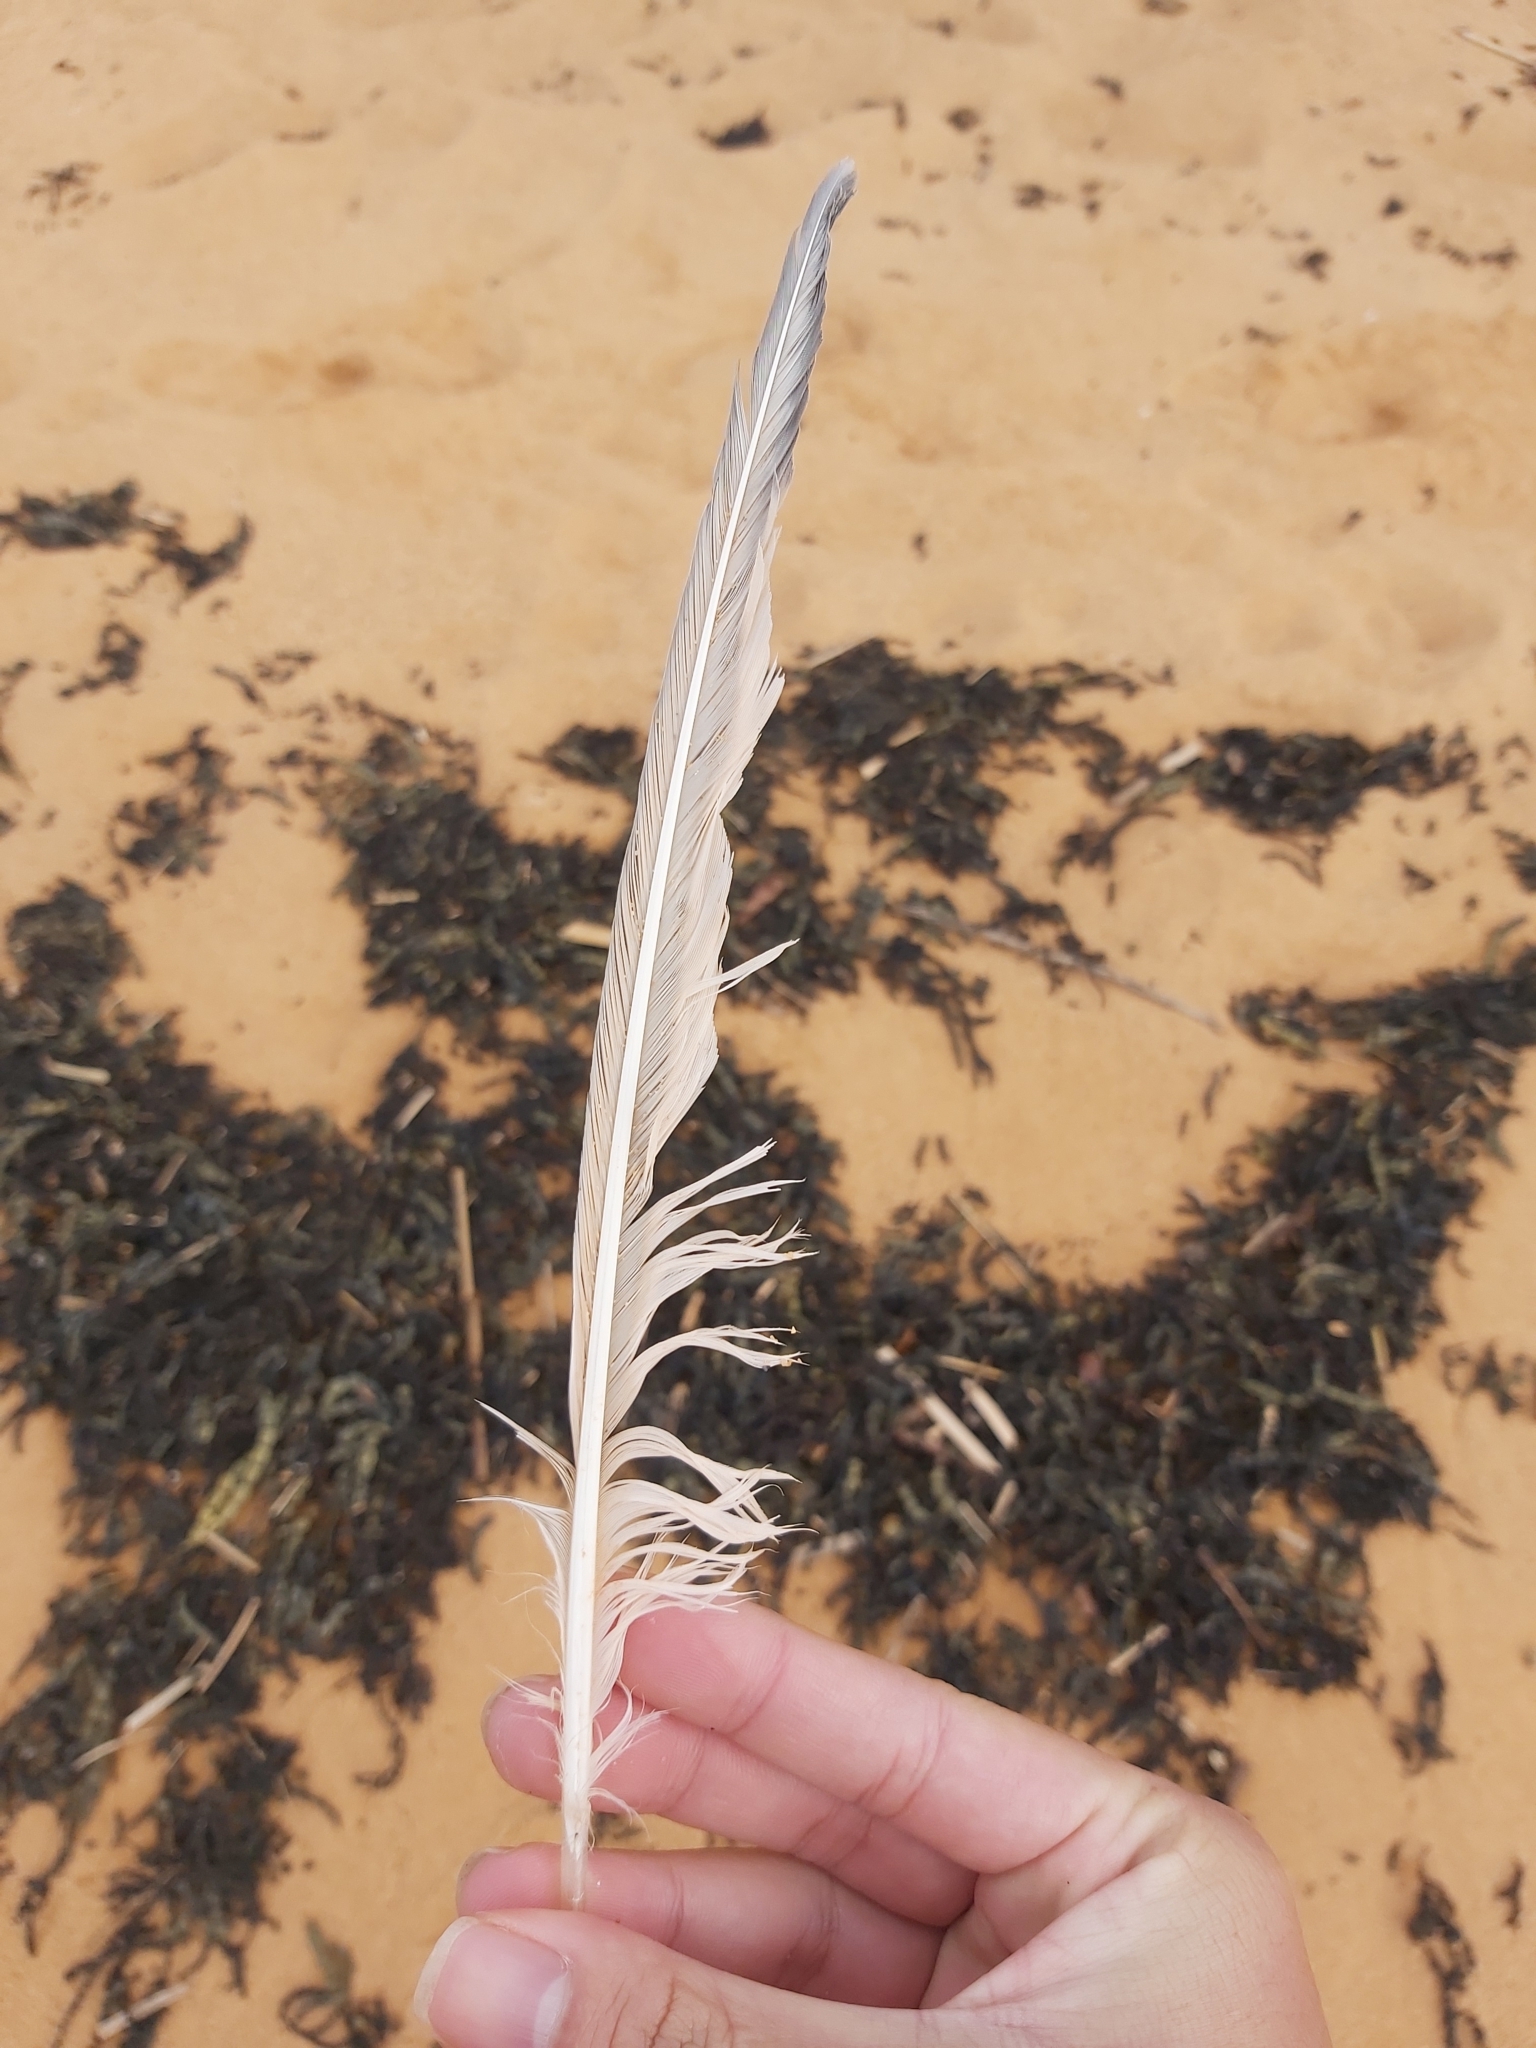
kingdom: Animalia
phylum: Chordata
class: Aves
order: Charadriiformes
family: Laridae
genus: Thalasseus
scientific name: Thalasseus bergii
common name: Greater crested tern
